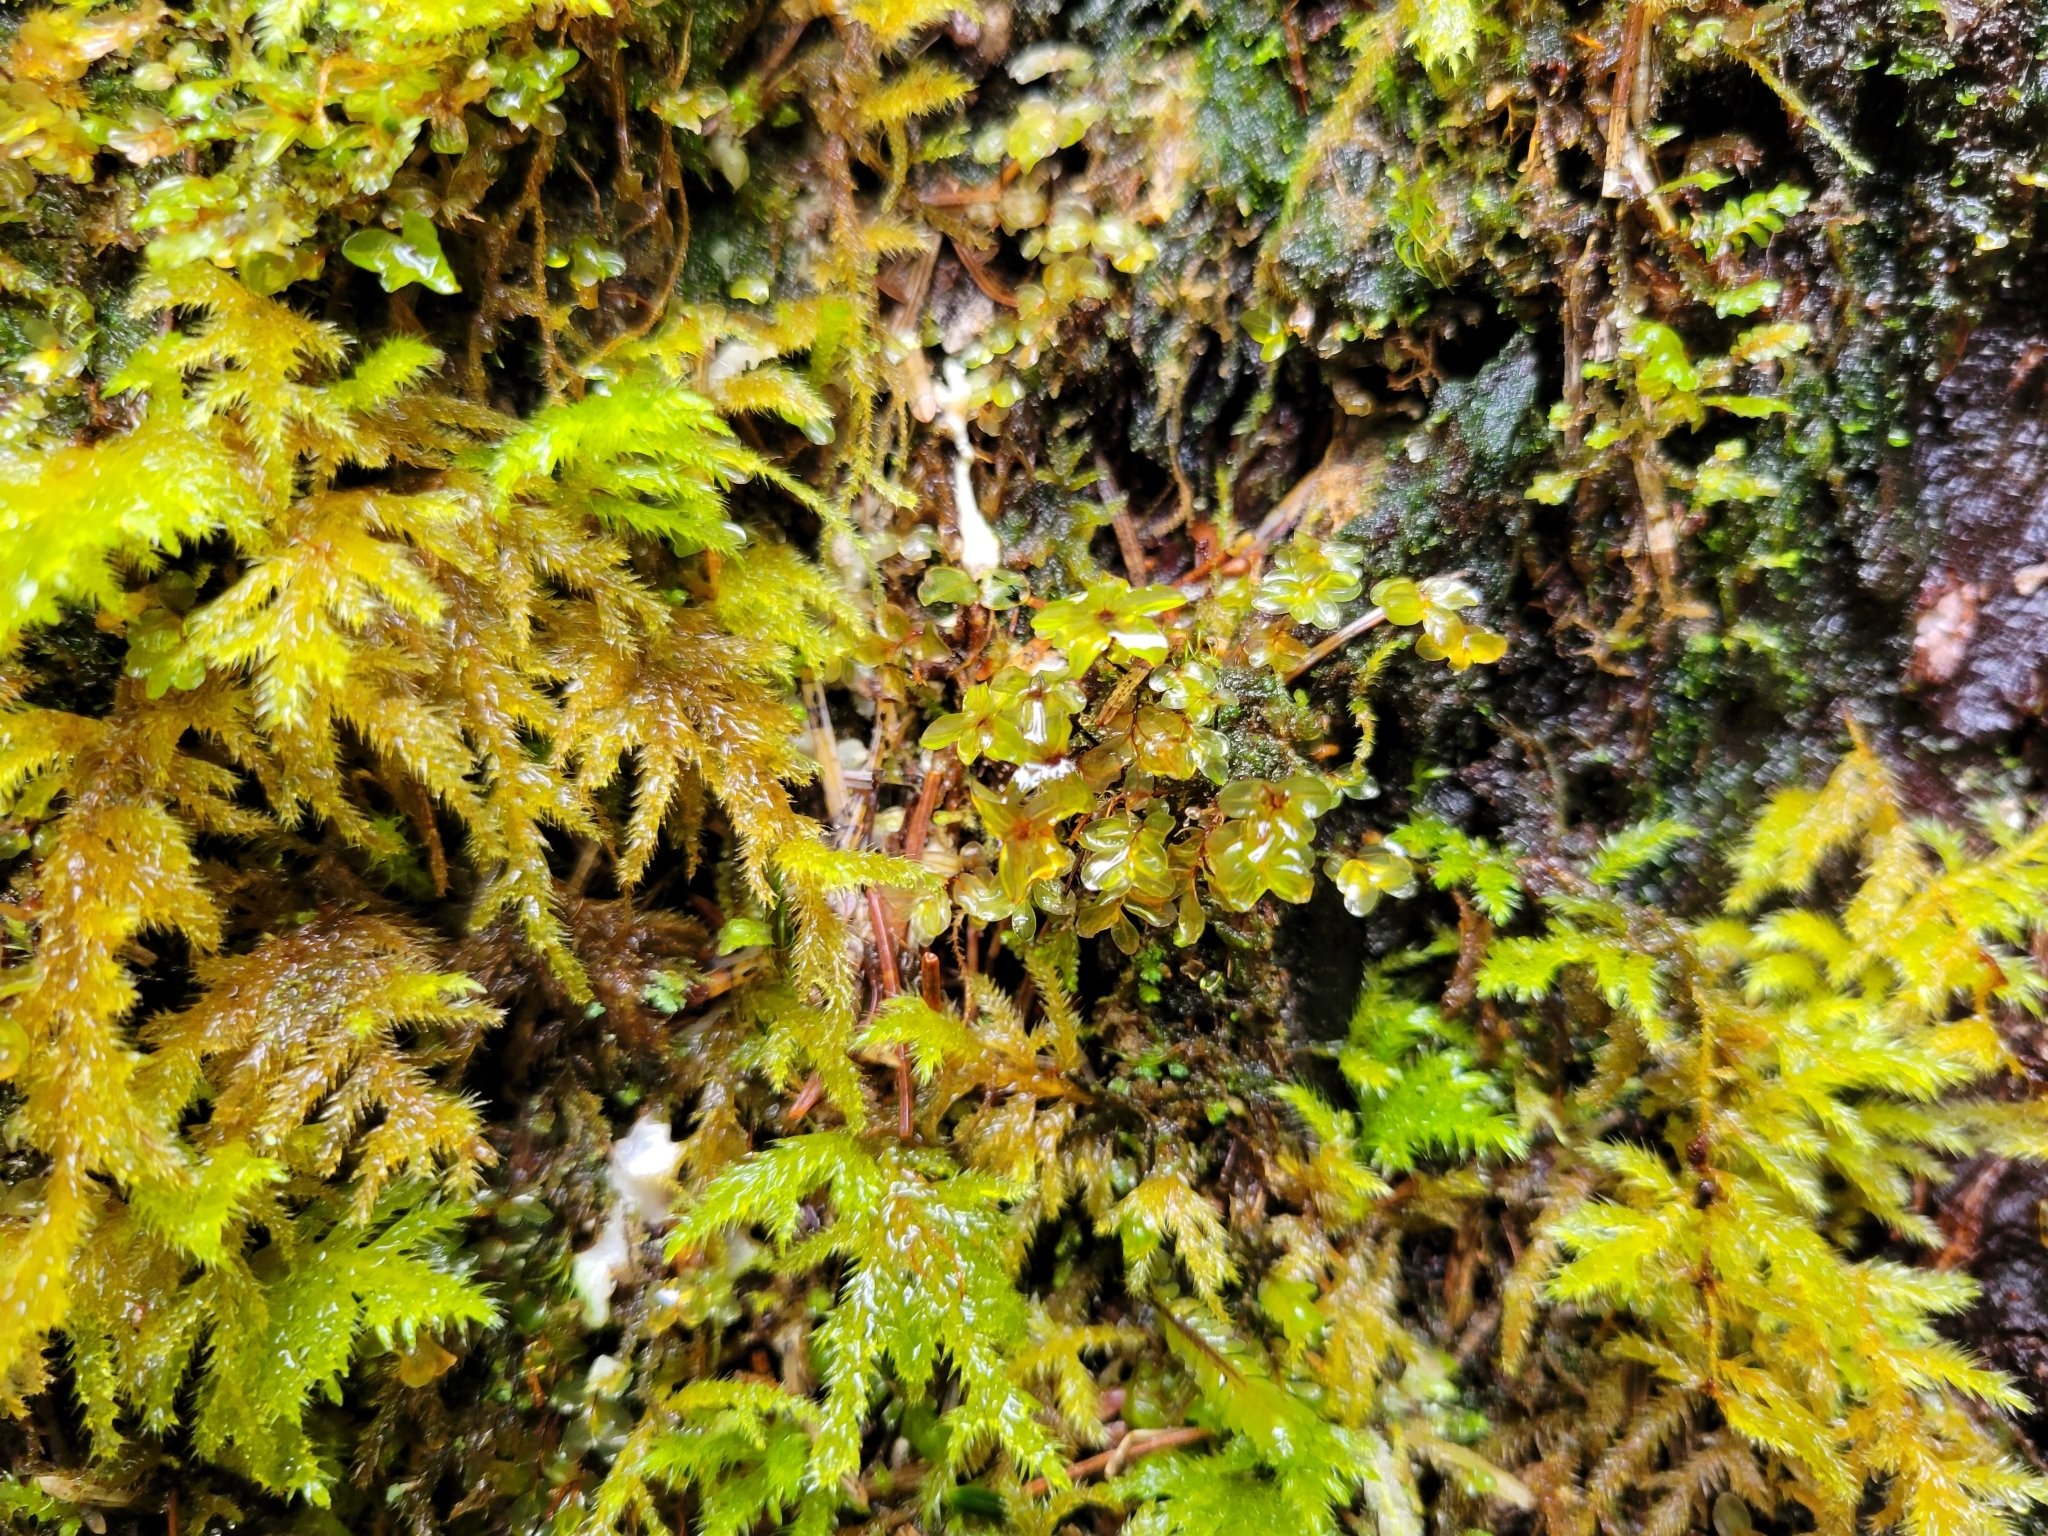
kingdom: Plantae
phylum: Bryophyta
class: Bryopsida
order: Bryales
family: Mniaceae
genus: Rhizomnium
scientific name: Rhizomnium glabrescens
